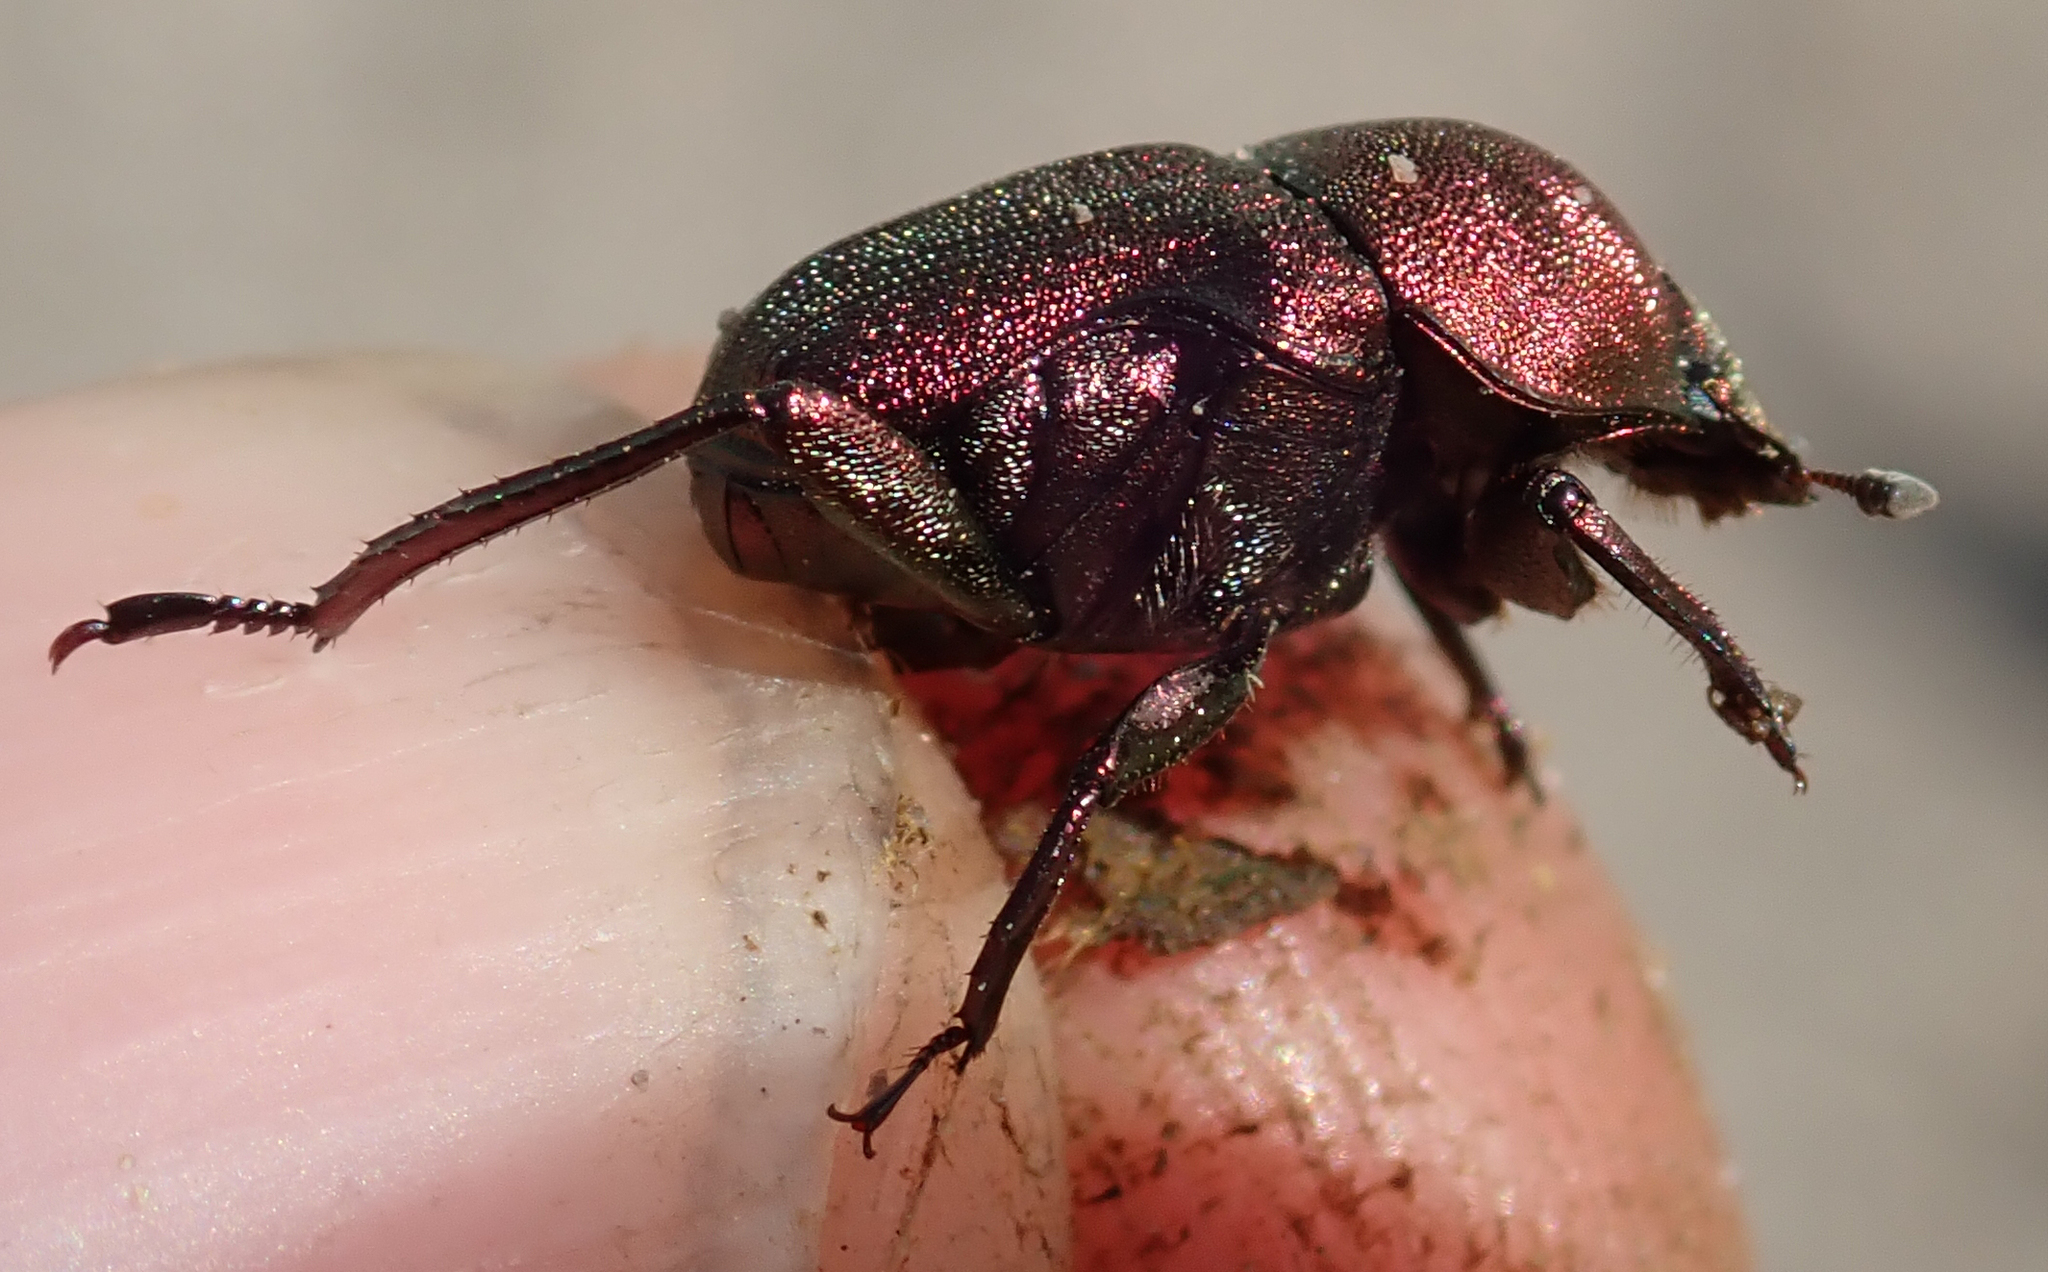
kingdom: Animalia
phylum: Arthropoda
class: Insecta
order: Coleoptera
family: Scarabaeidae
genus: Gymnopleurus
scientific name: Gymnopleurus aenescens
